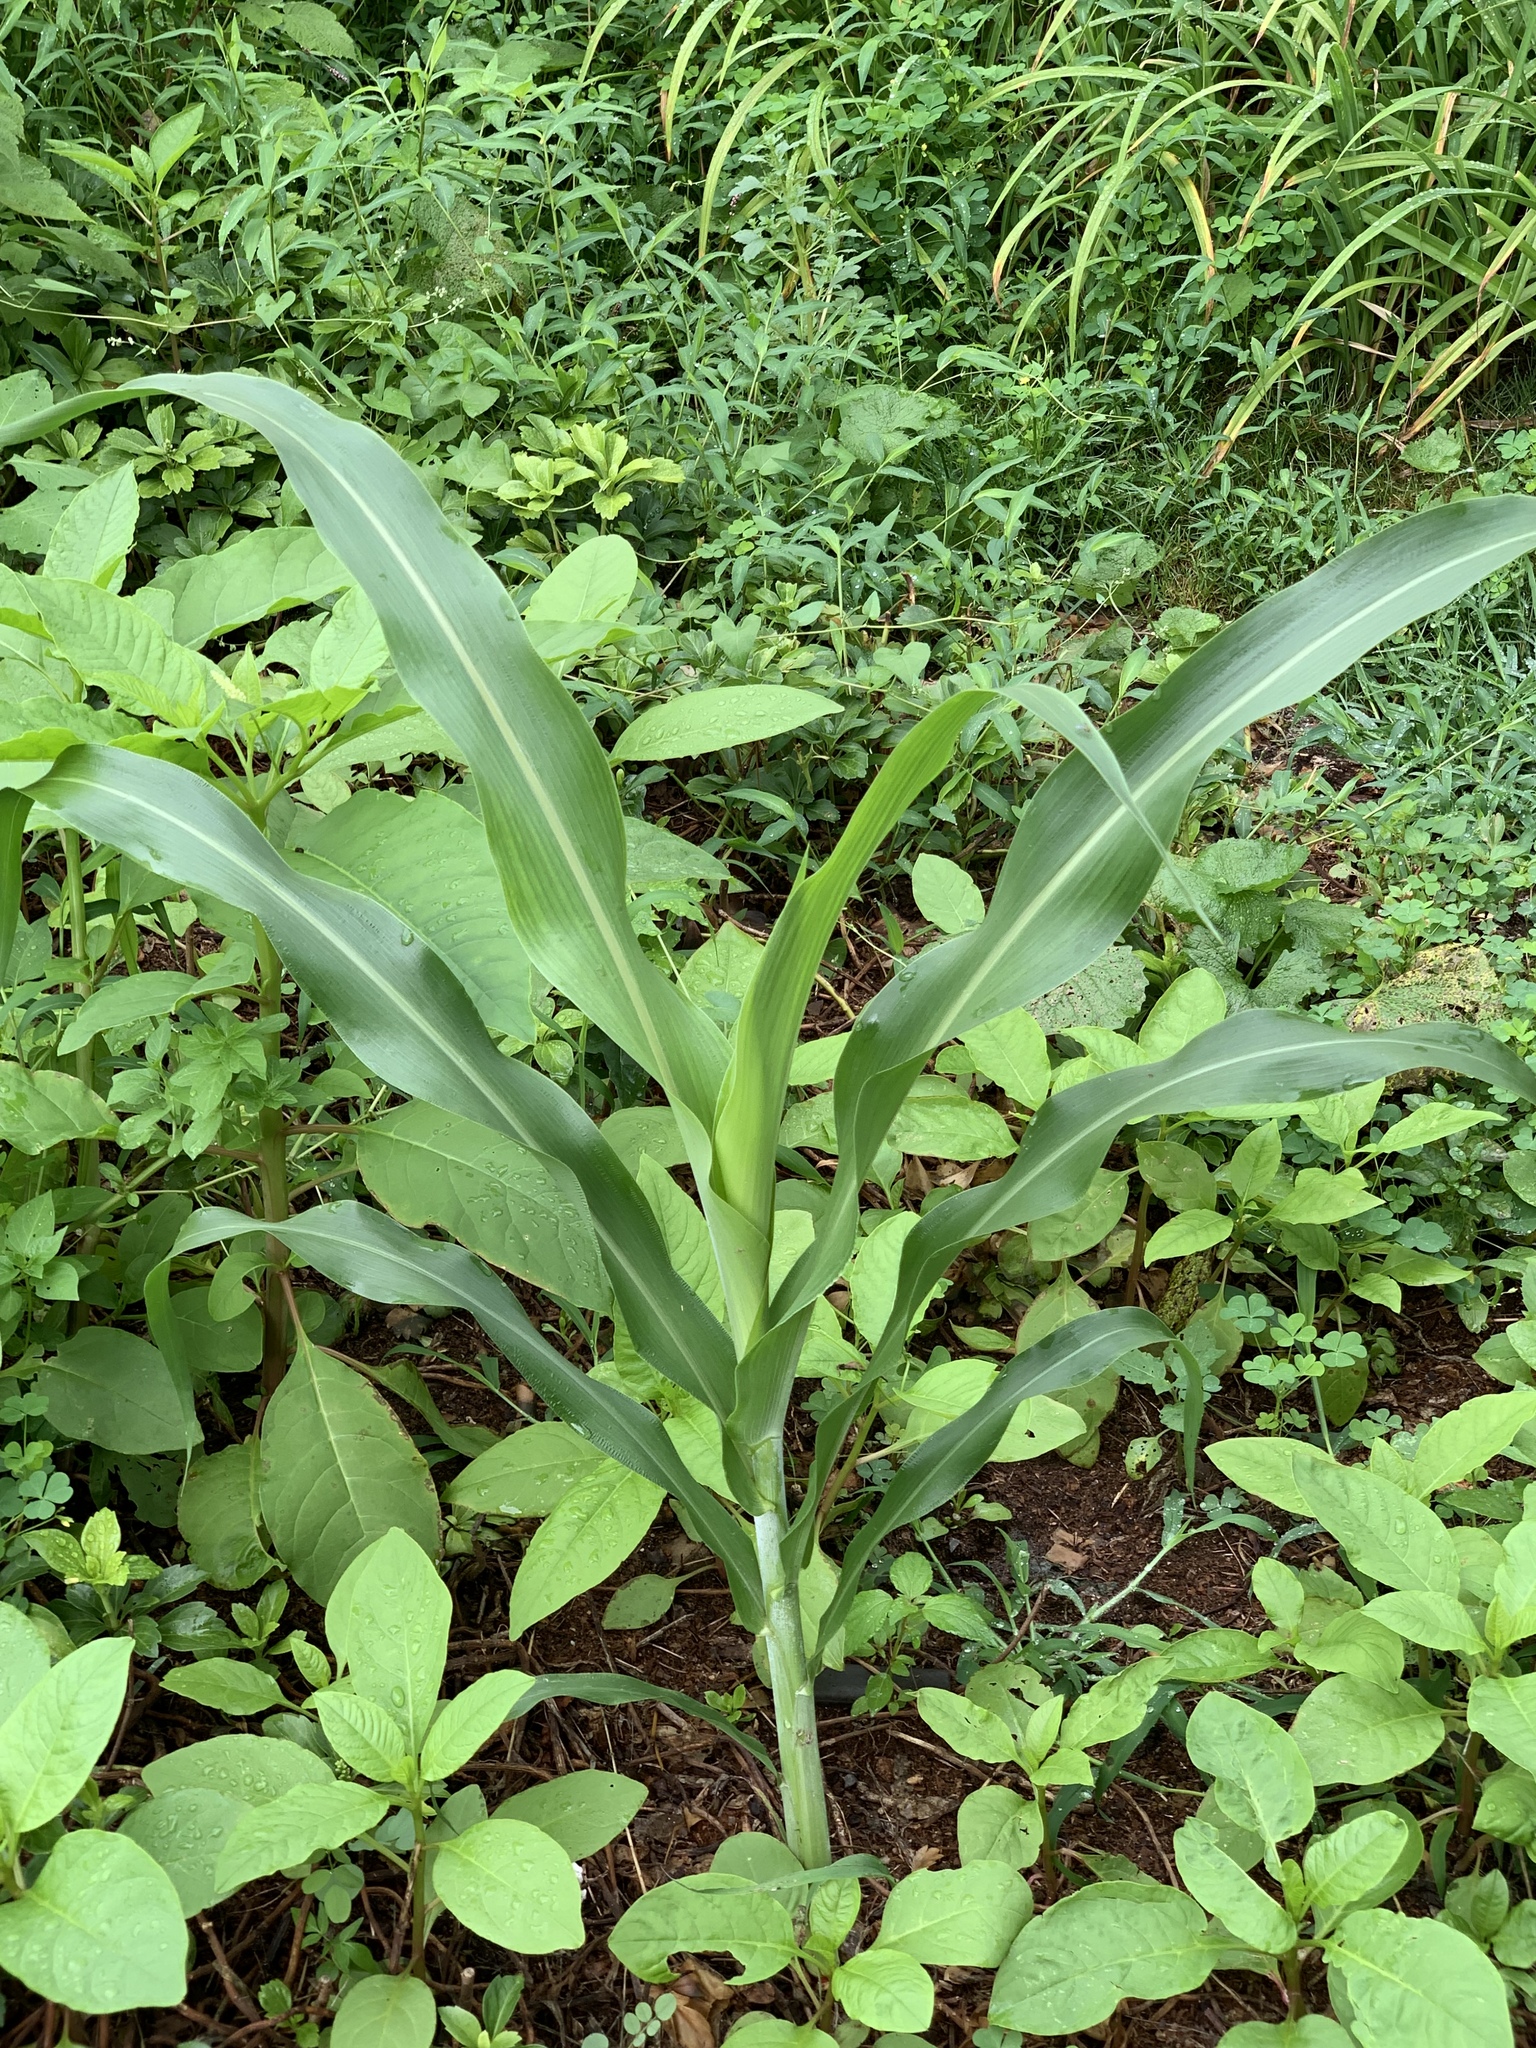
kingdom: Plantae
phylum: Tracheophyta
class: Liliopsida
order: Poales
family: Poaceae
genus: Zea
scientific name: Zea mays
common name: Maize
